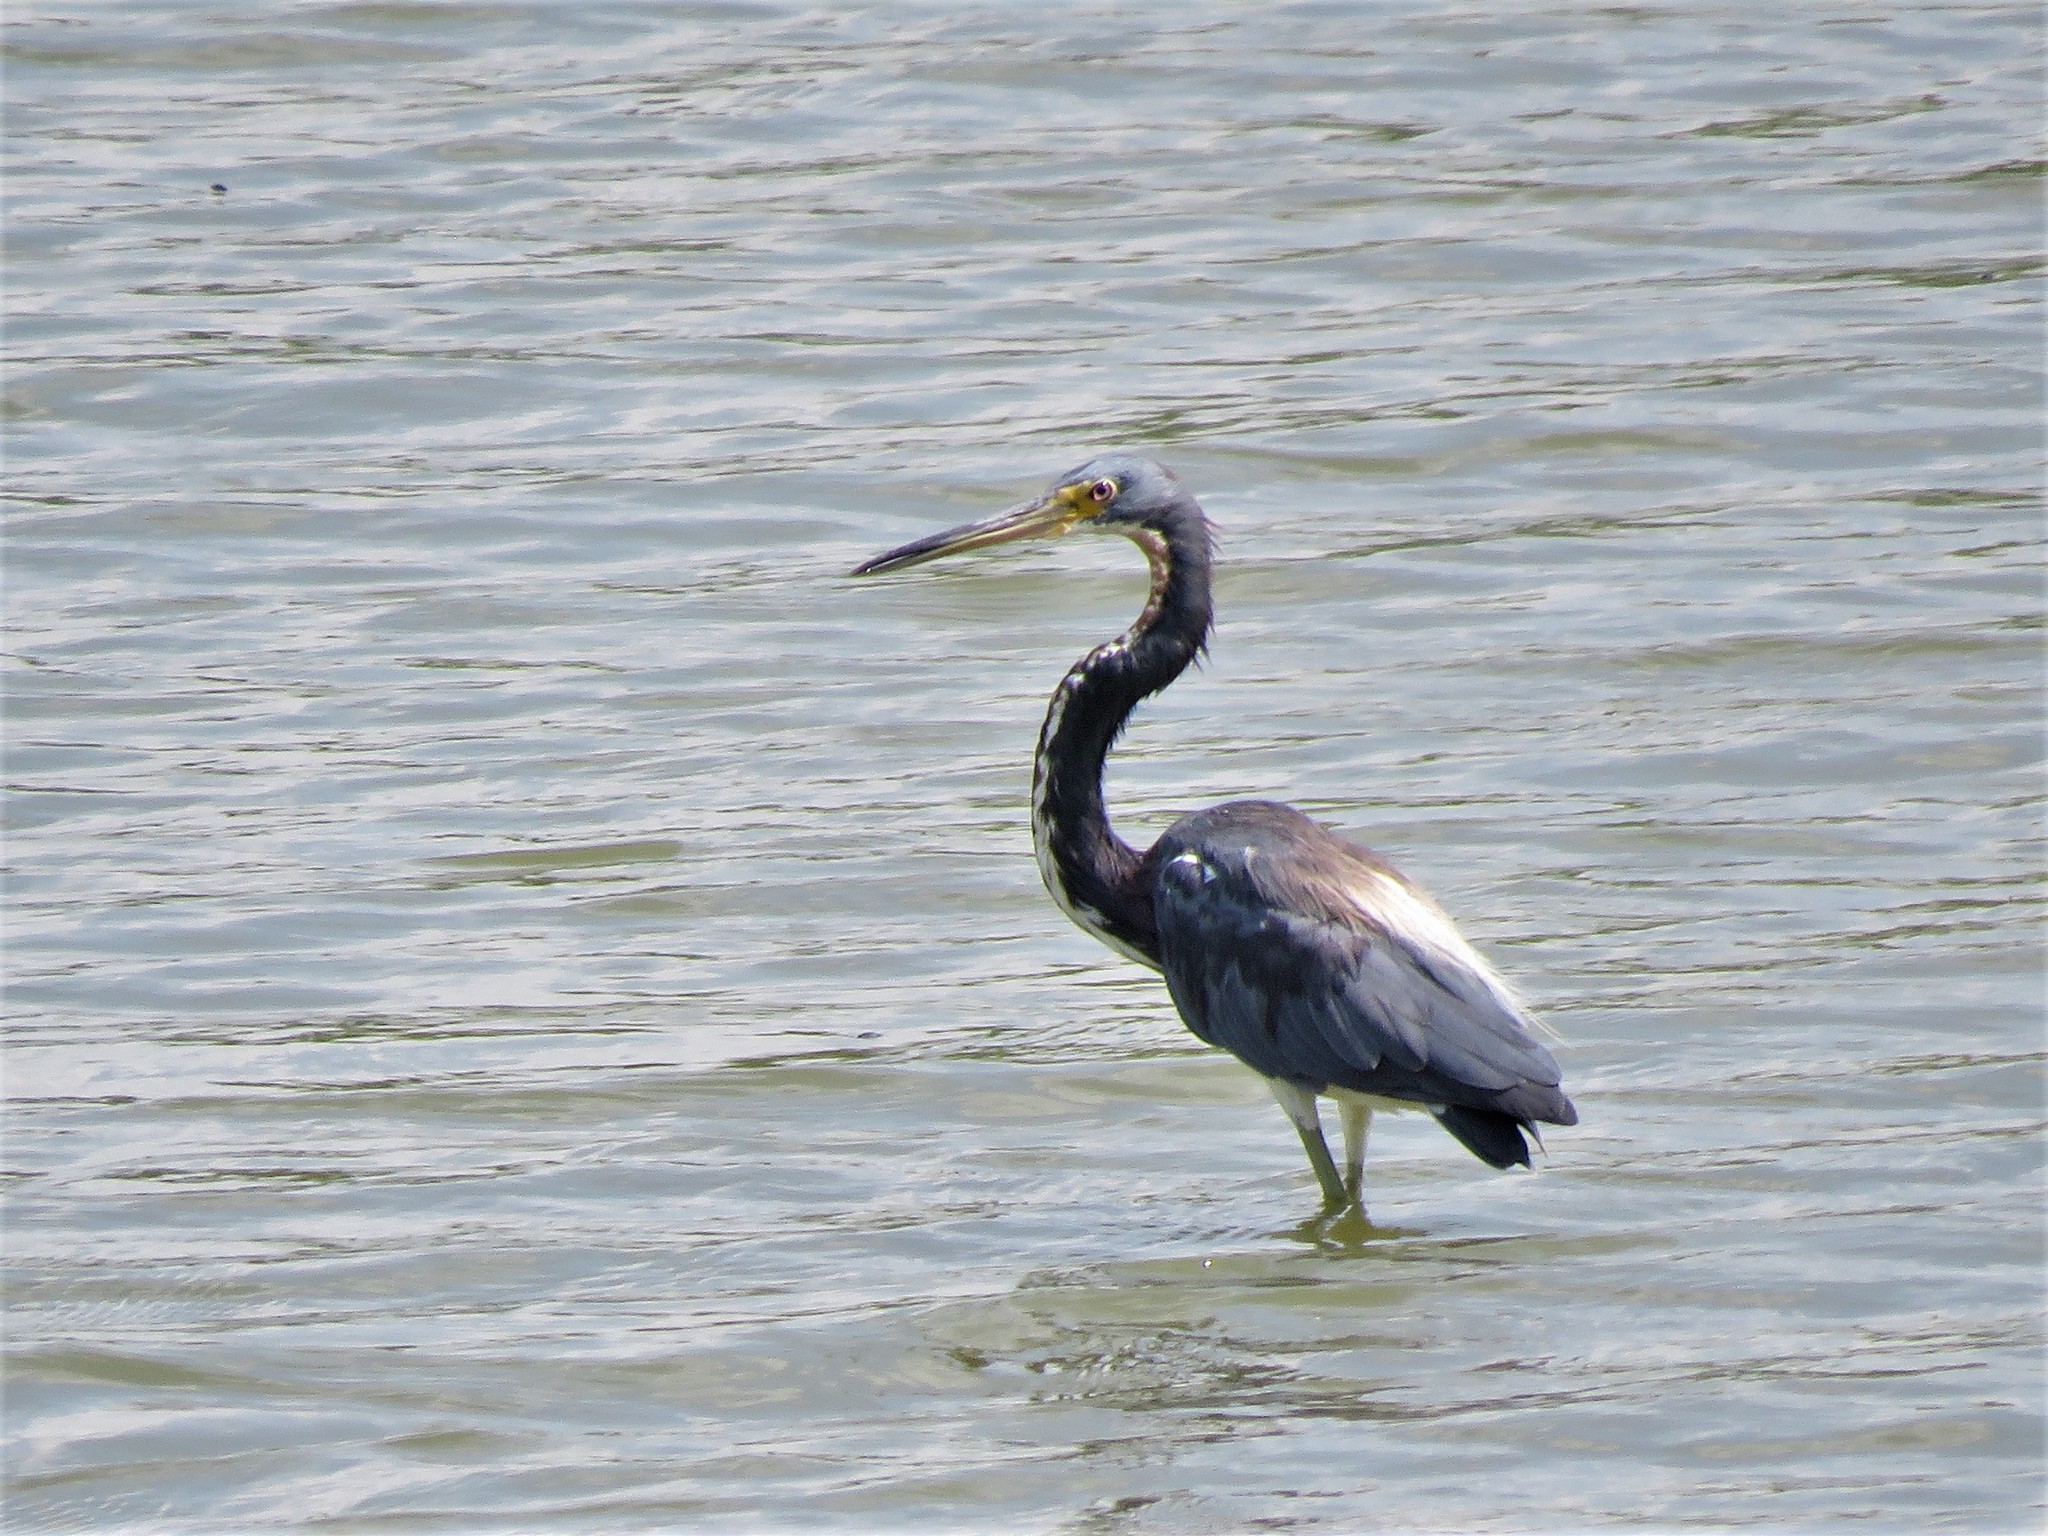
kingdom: Animalia
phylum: Chordata
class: Aves
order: Pelecaniformes
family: Ardeidae
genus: Egretta
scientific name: Egretta tricolor
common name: Tricolored heron
